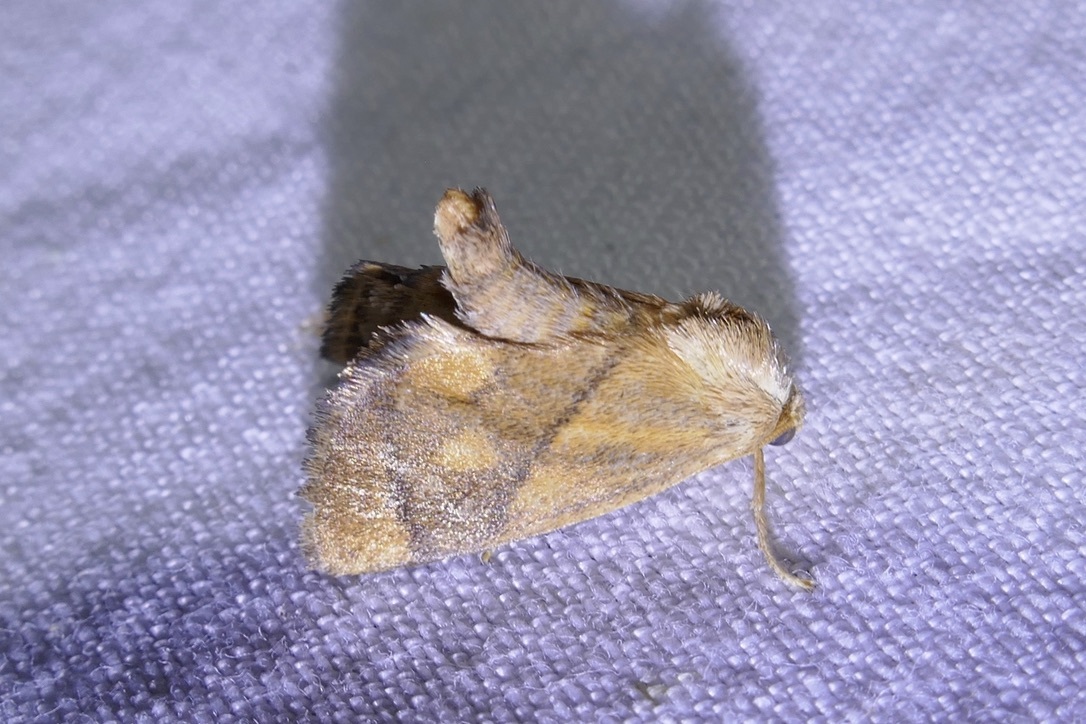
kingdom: Animalia
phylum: Arthropoda
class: Insecta
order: Lepidoptera
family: Limacodidae
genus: Apoda
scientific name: Apoda limacodes
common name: Festoon
